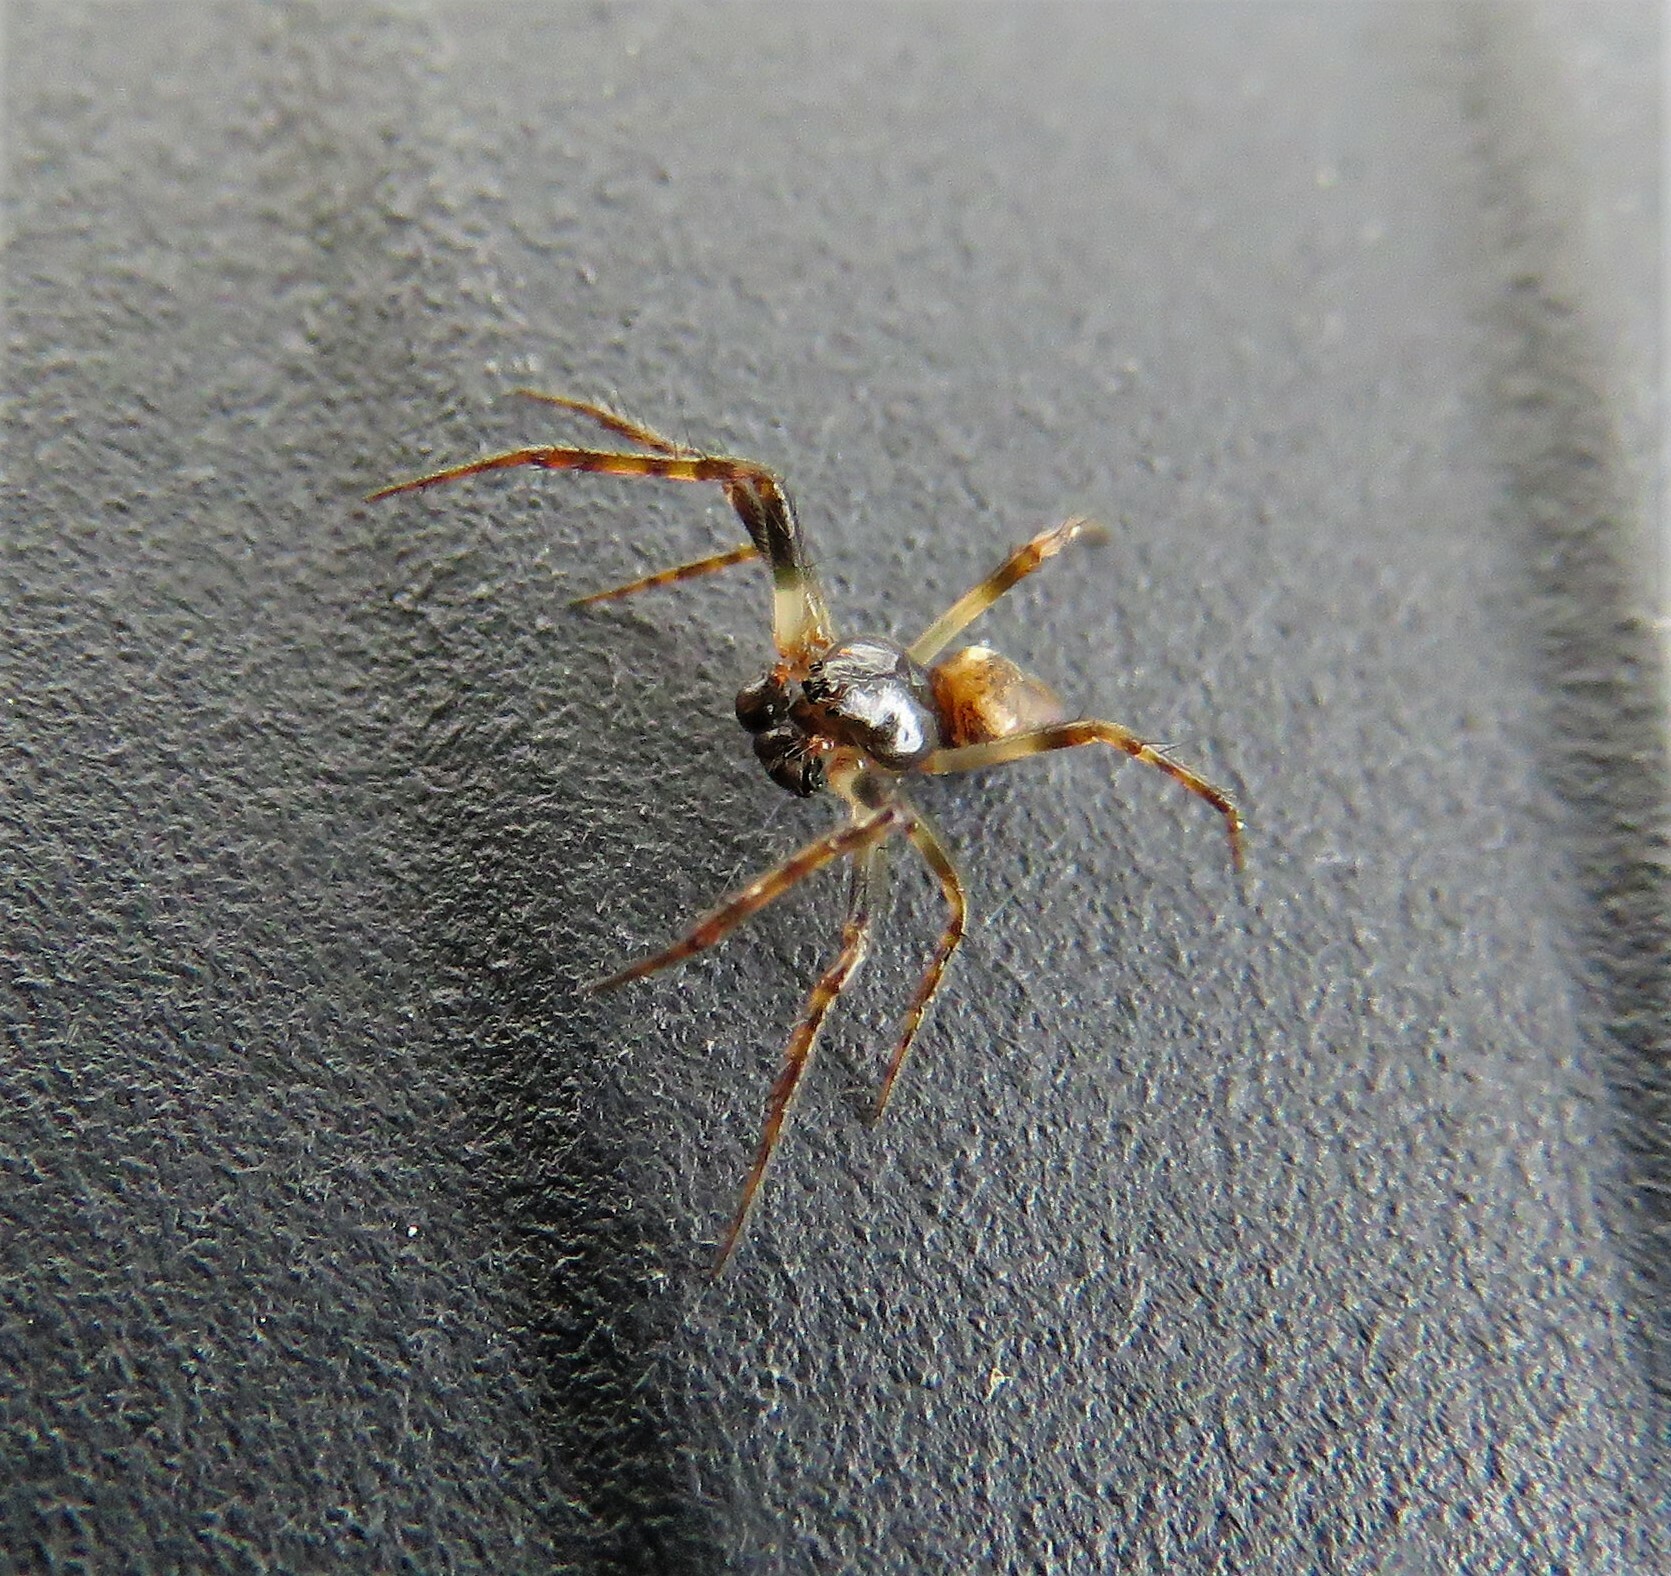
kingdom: Animalia
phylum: Arthropoda
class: Arachnida
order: Araneae
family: Araneidae
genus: Cyclosa
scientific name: Cyclosa conica
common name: Conical trashline orbweaver
